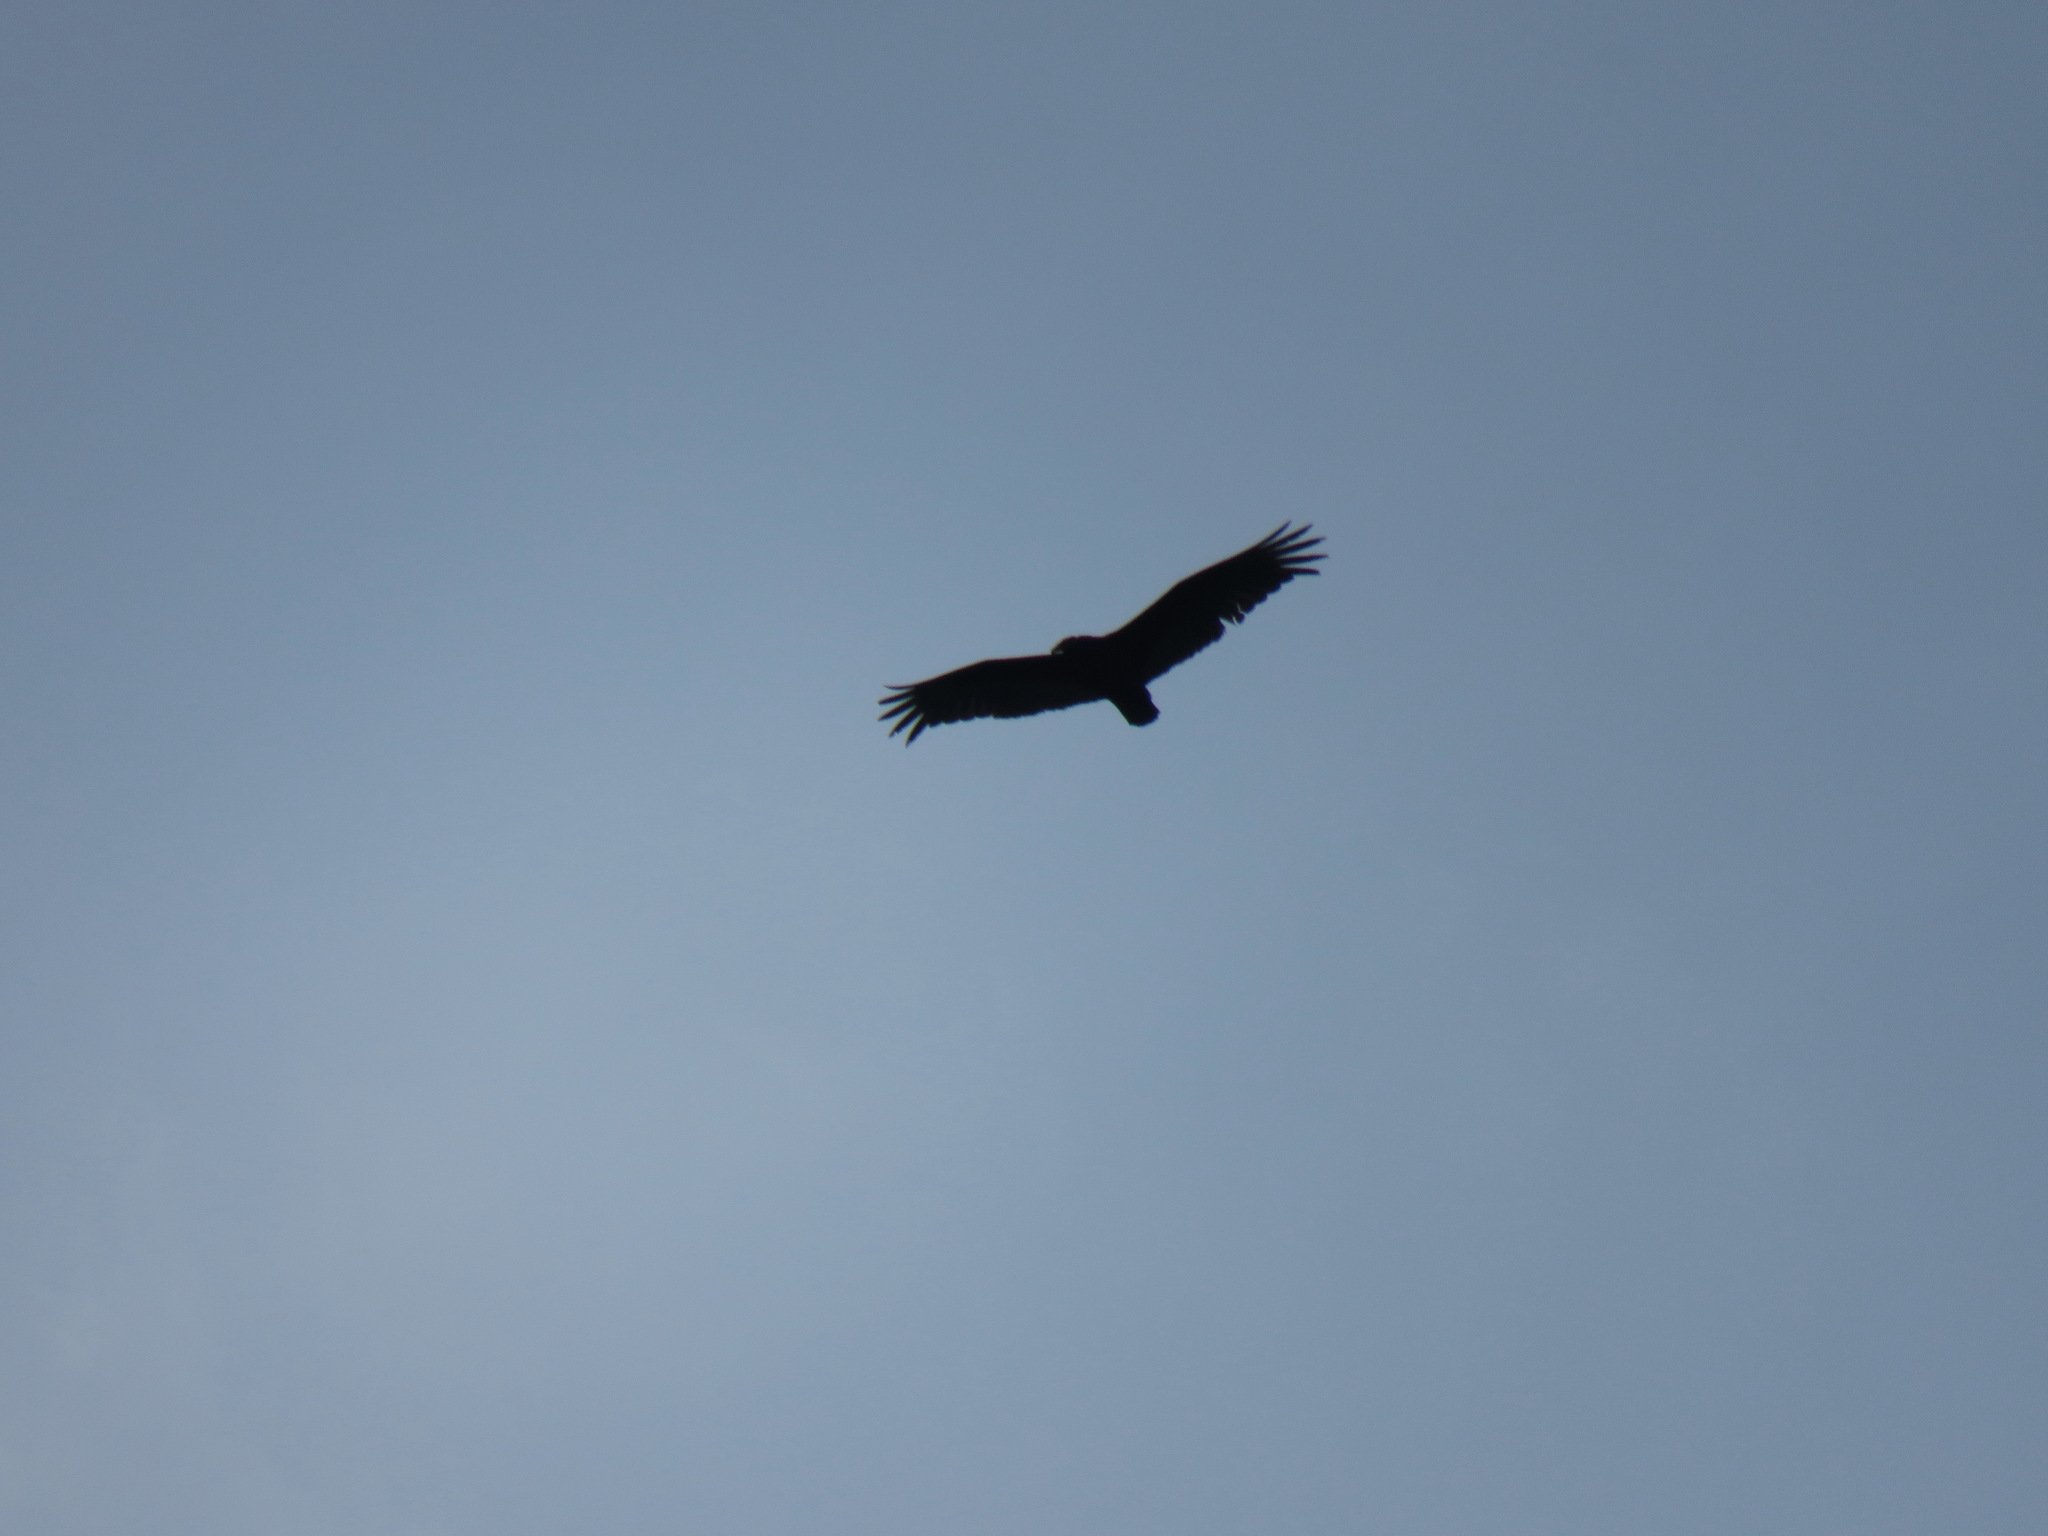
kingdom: Animalia
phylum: Chordata
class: Aves
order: Accipitriformes
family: Cathartidae
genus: Cathartes
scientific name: Cathartes aura
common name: Turkey vulture
